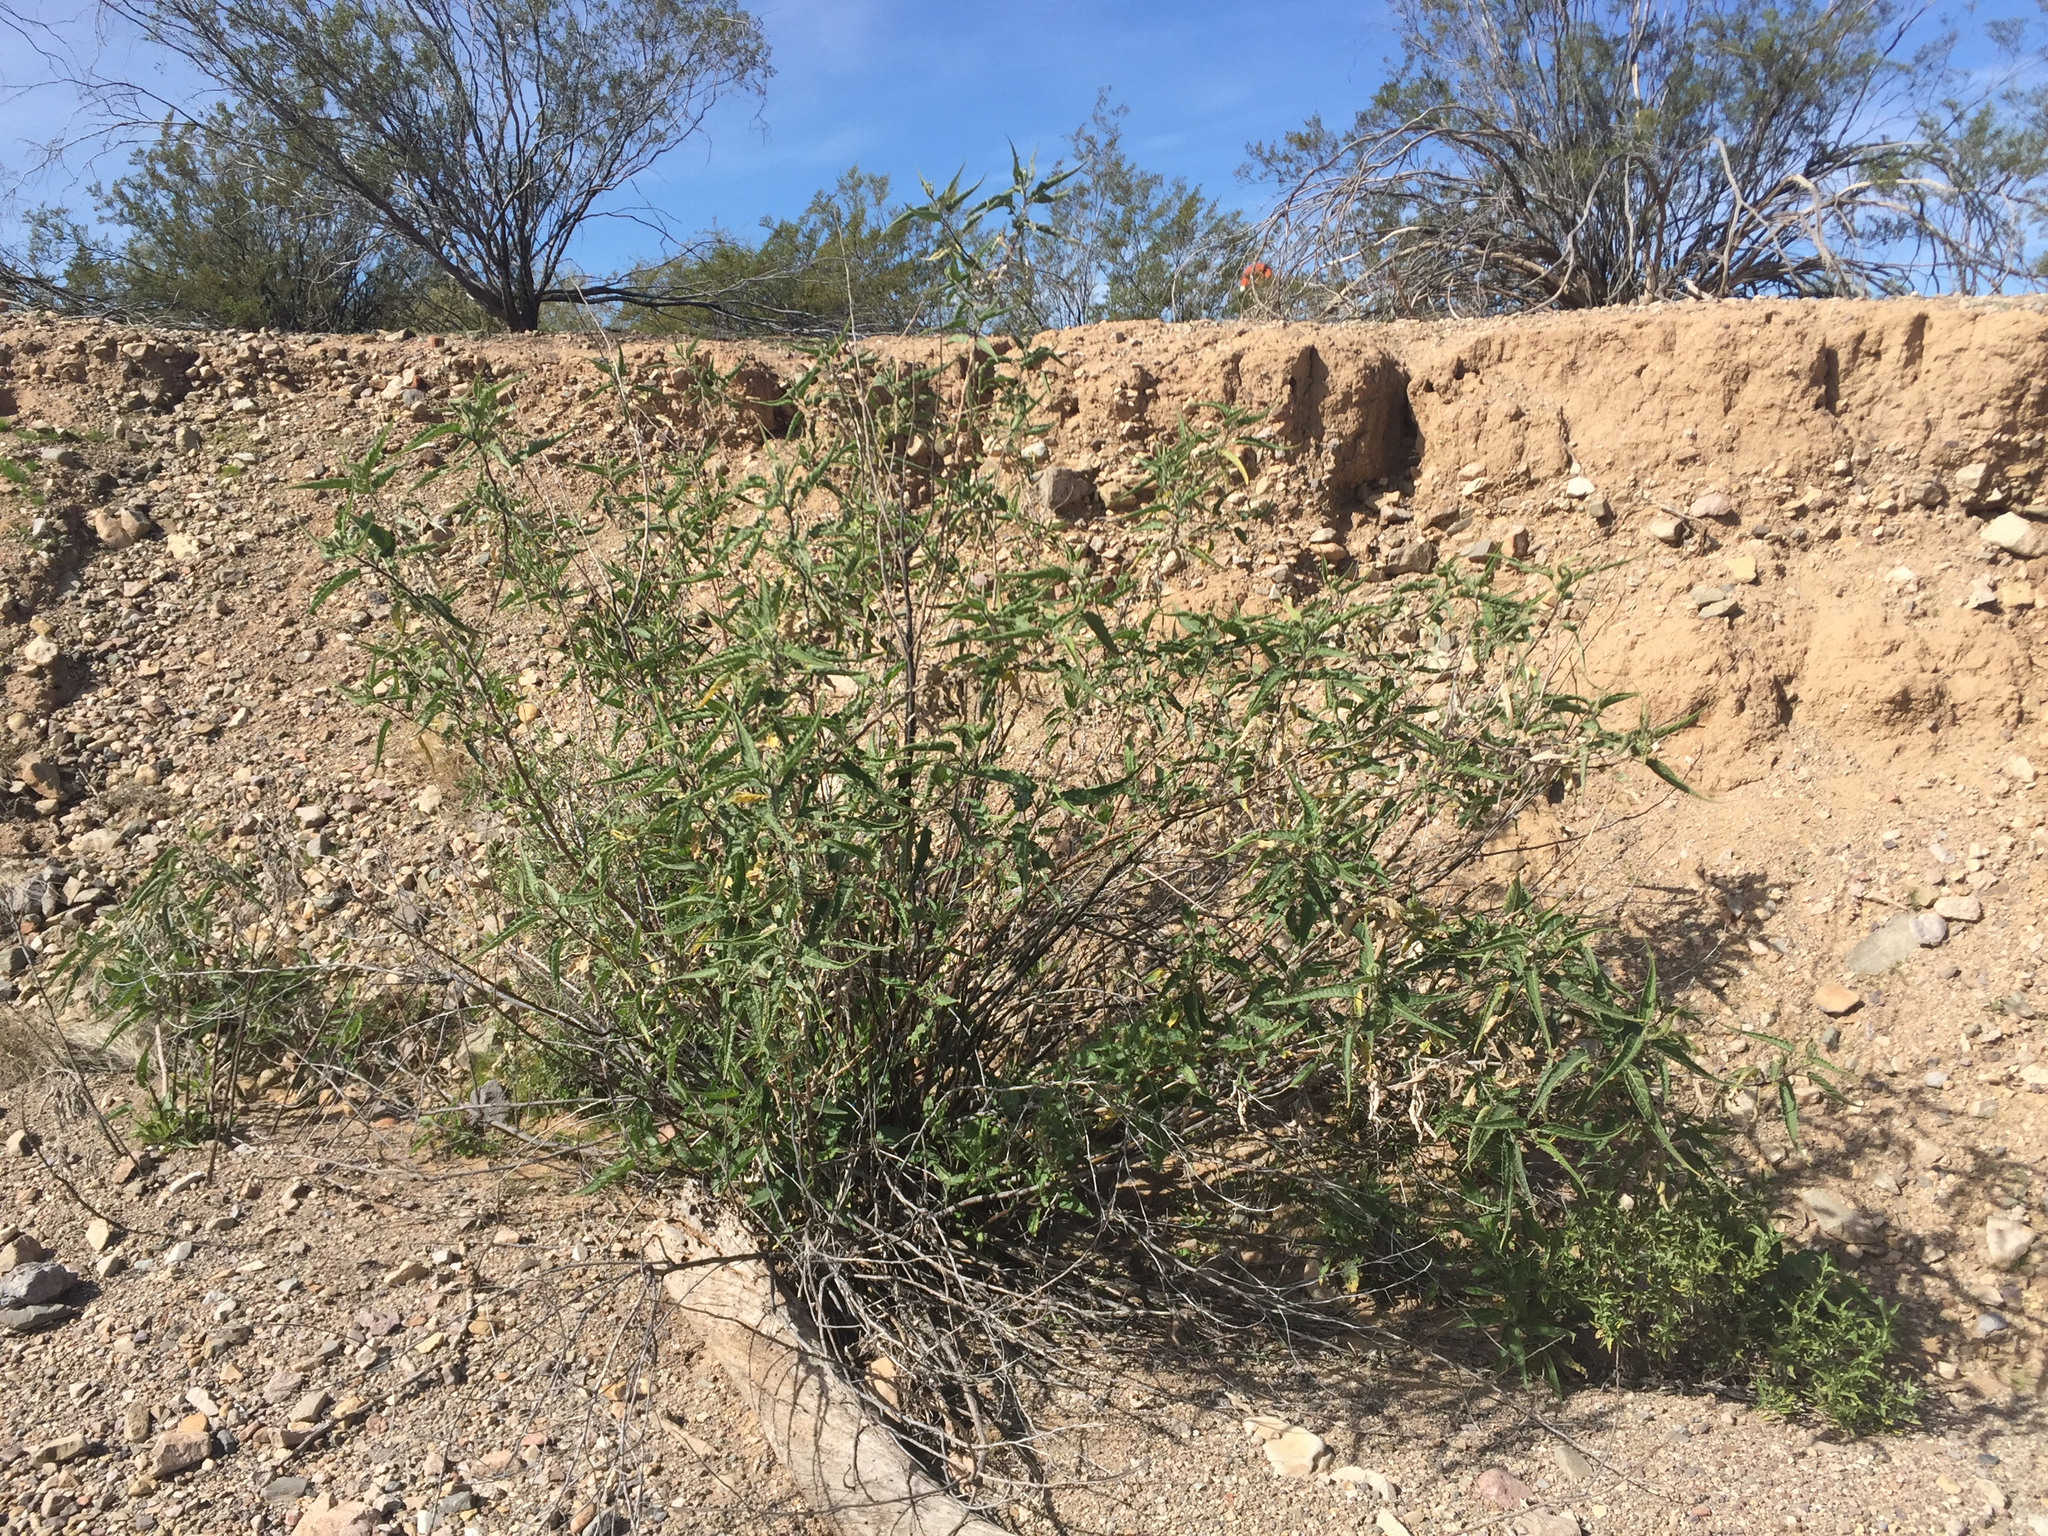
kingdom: Plantae
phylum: Tracheophyta
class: Magnoliopsida
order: Asterales
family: Asteraceae
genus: Ambrosia
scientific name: Ambrosia ambrosioides
